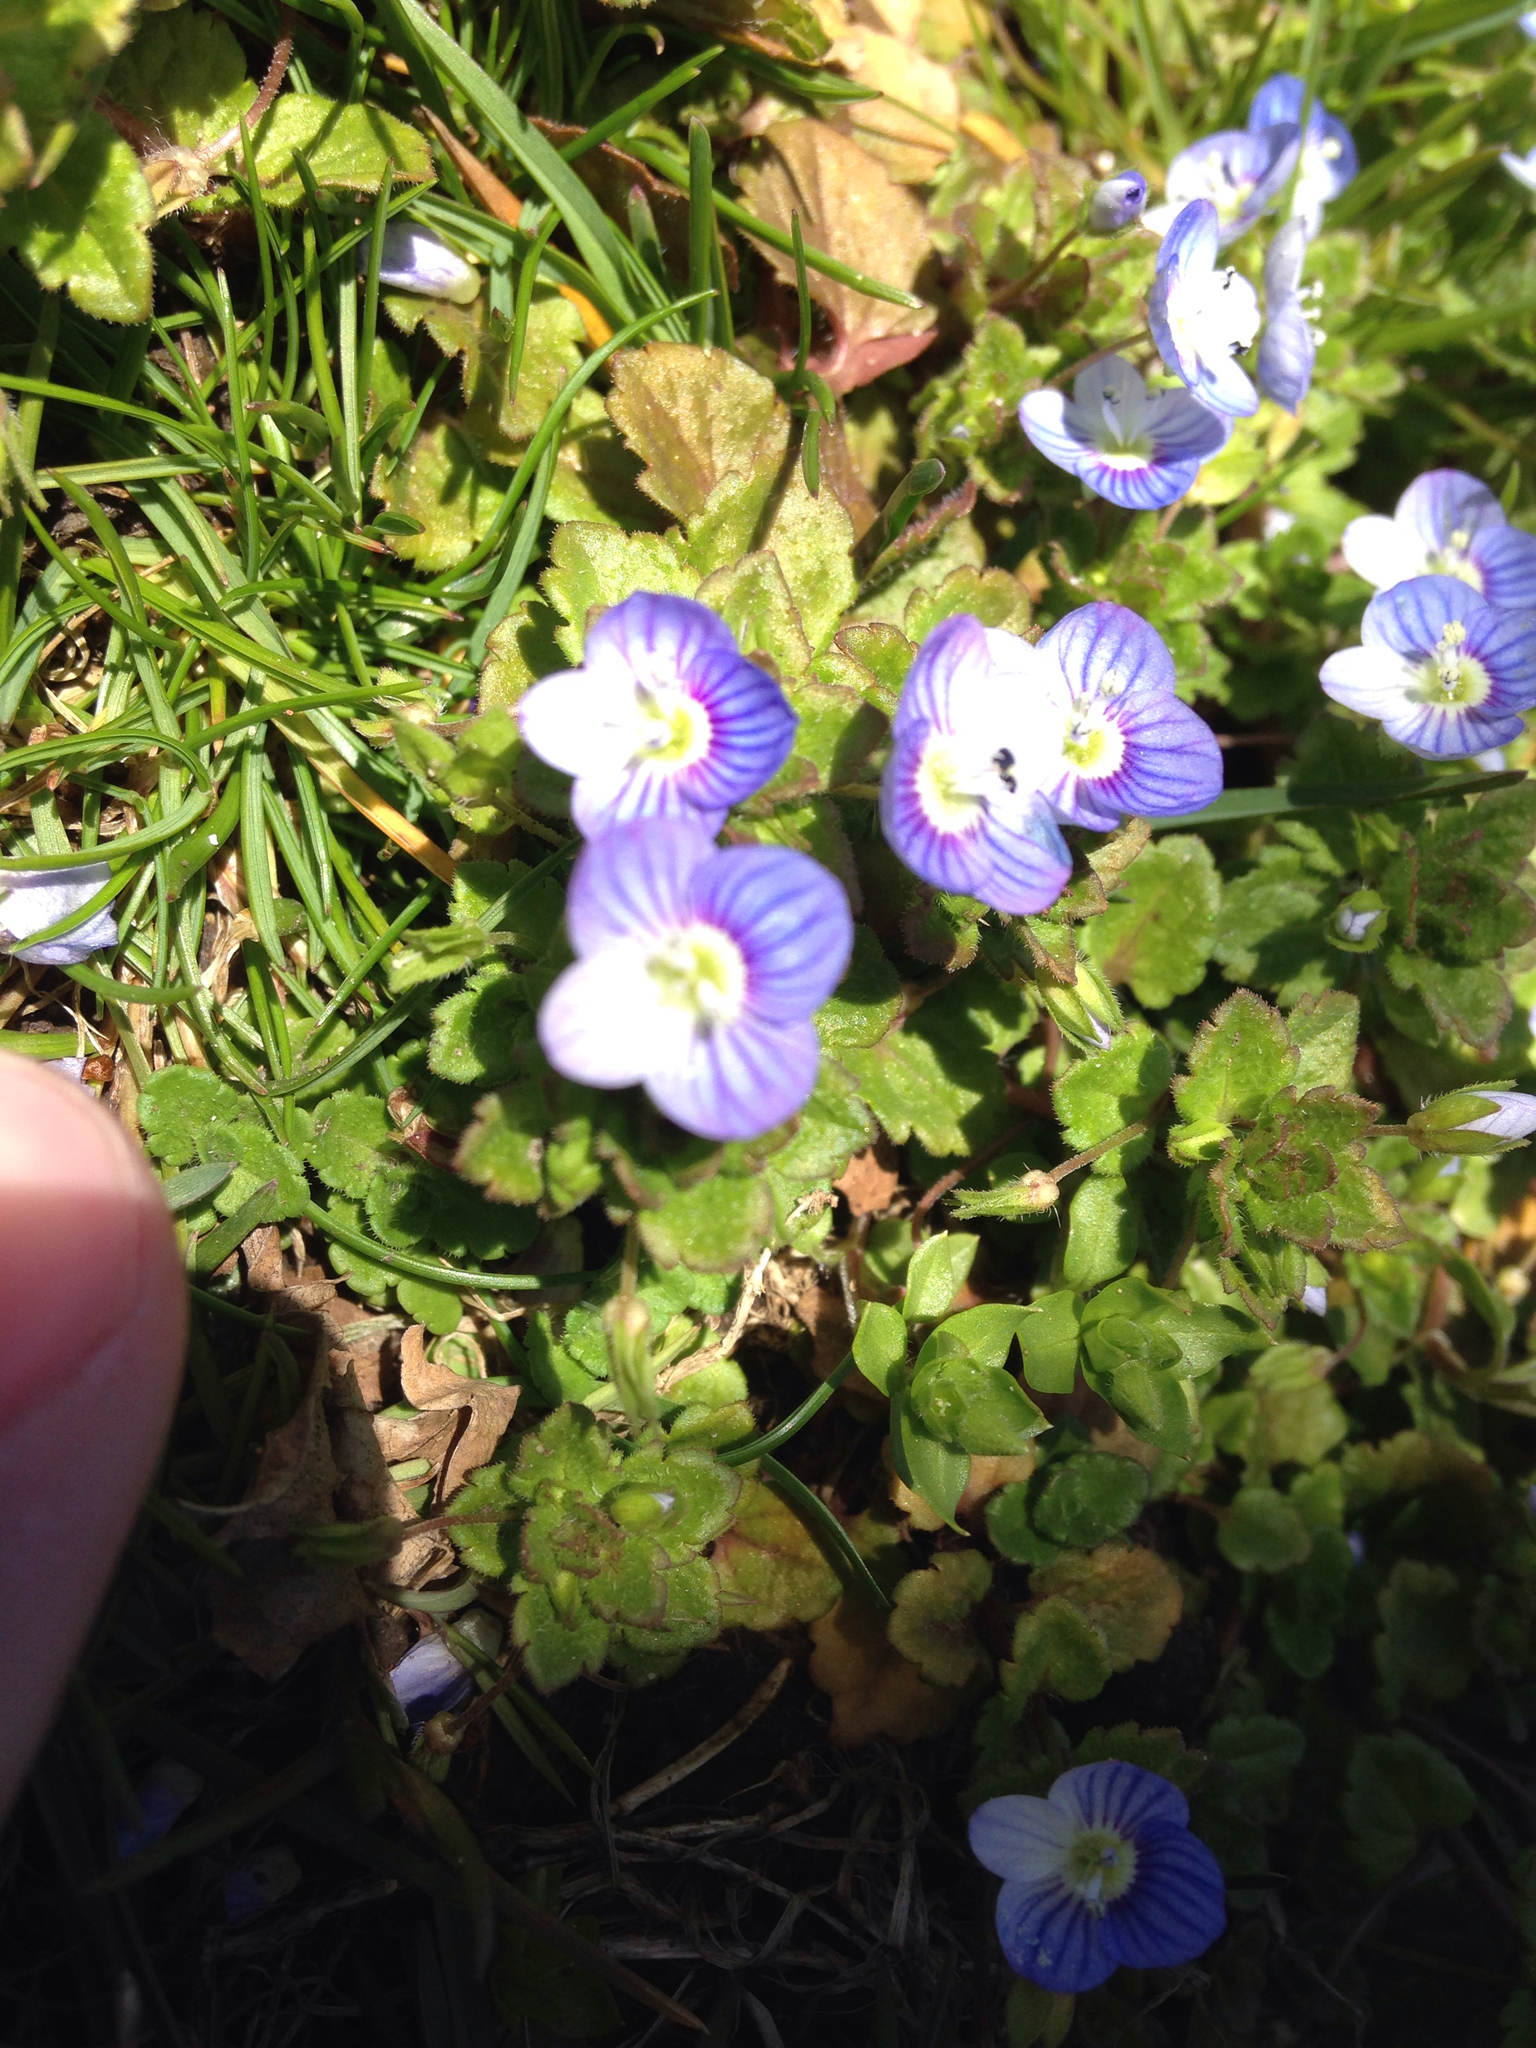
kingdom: Plantae
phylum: Tracheophyta
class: Magnoliopsida
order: Lamiales
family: Plantaginaceae
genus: Veronica
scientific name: Veronica persica
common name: Common field-speedwell
